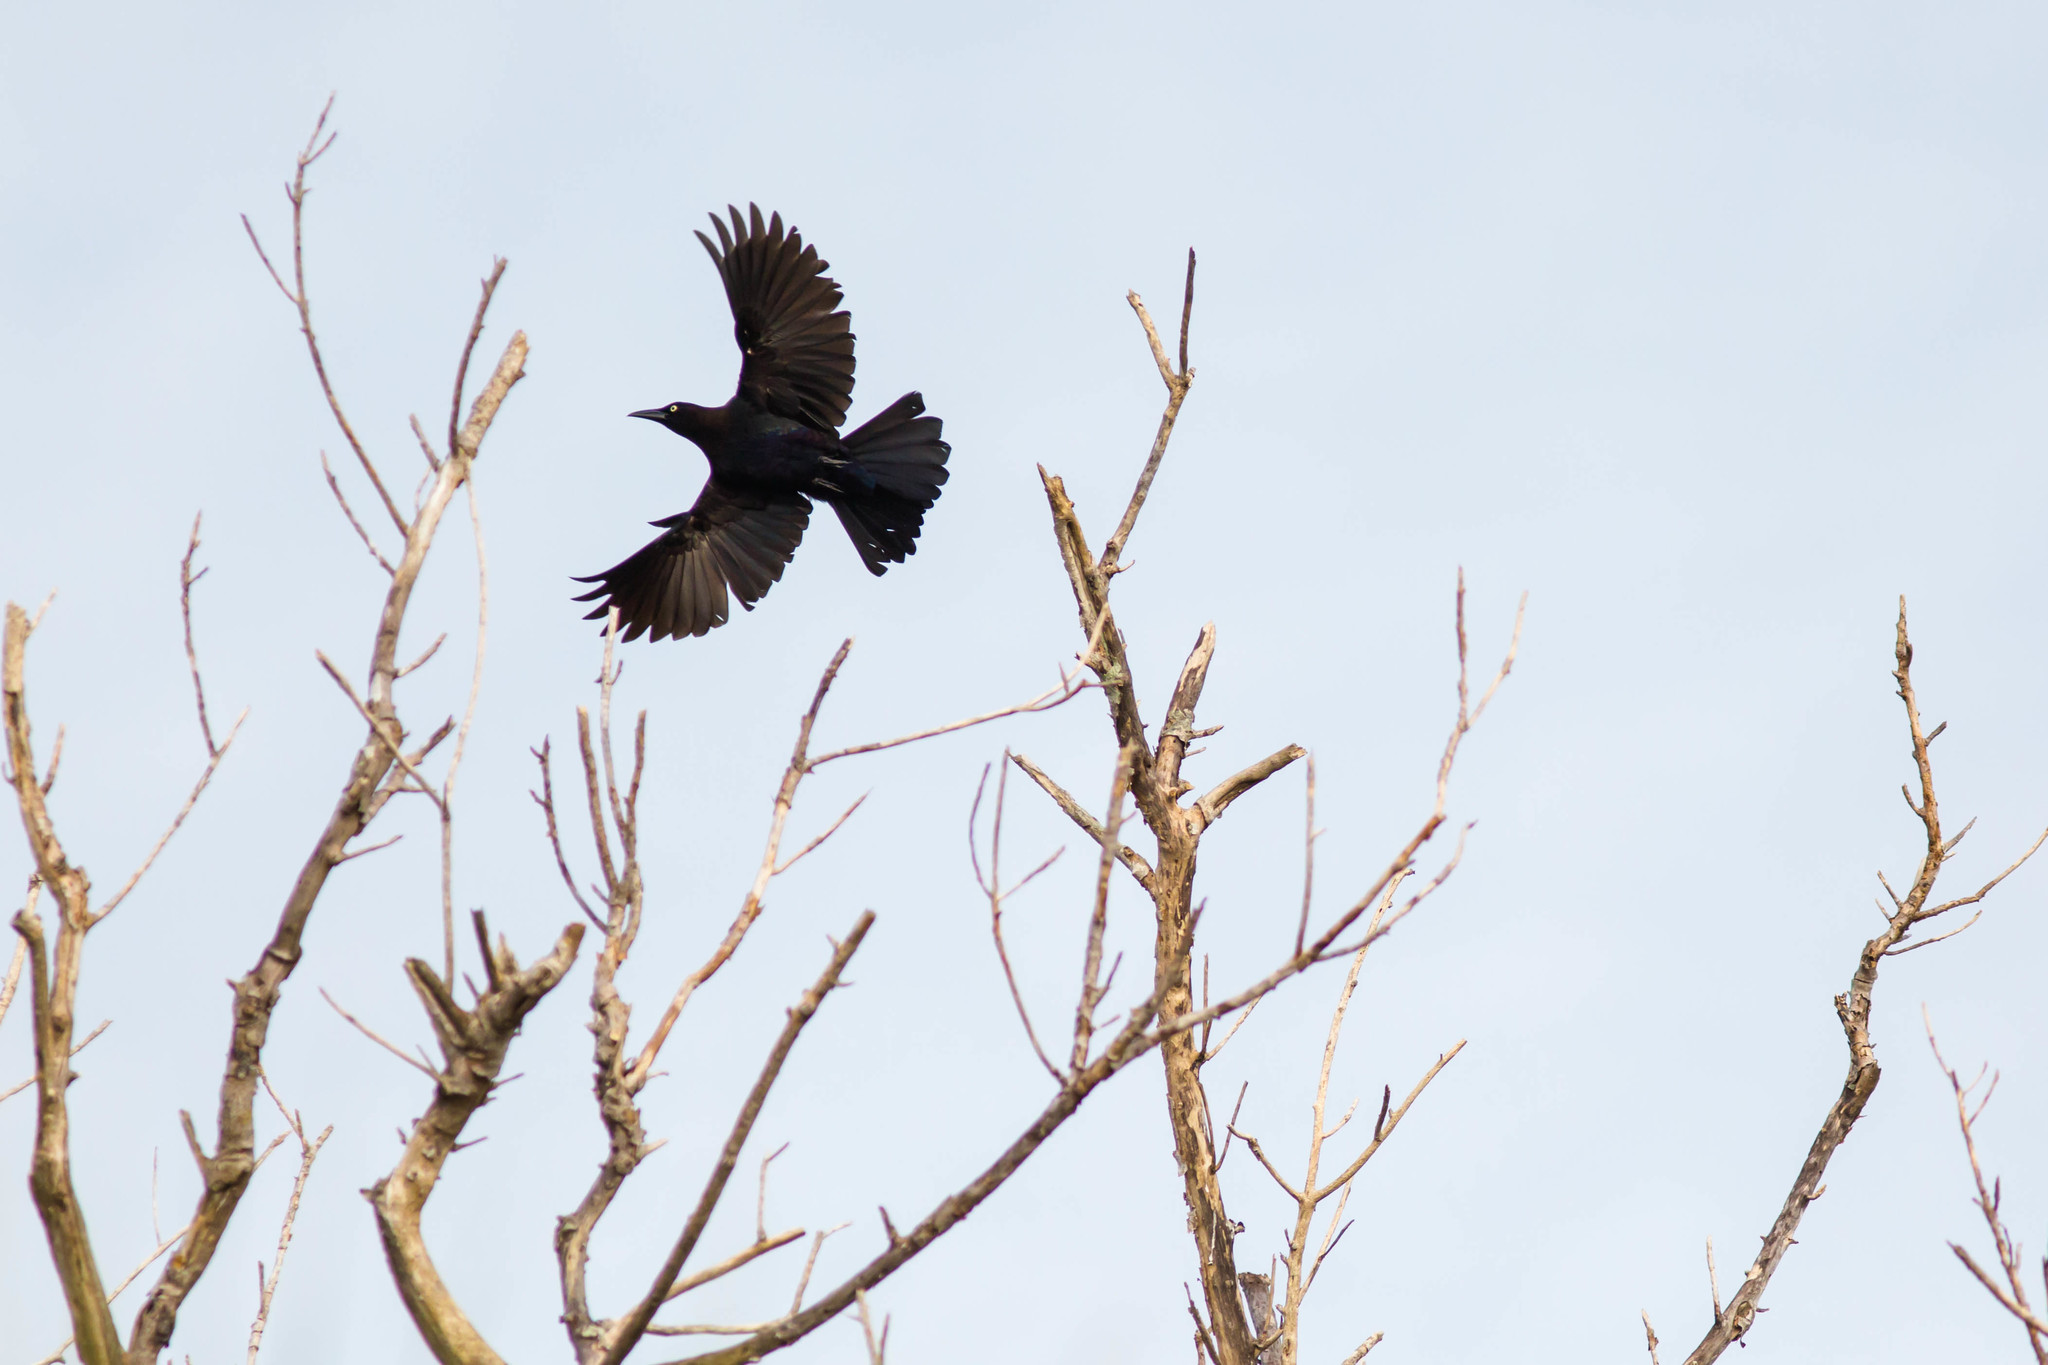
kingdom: Animalia
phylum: Chordata
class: Aves
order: Passeriformes
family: Icteridae
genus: Quiscalus
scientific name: Quiscalus quiscula
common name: Common grackle
